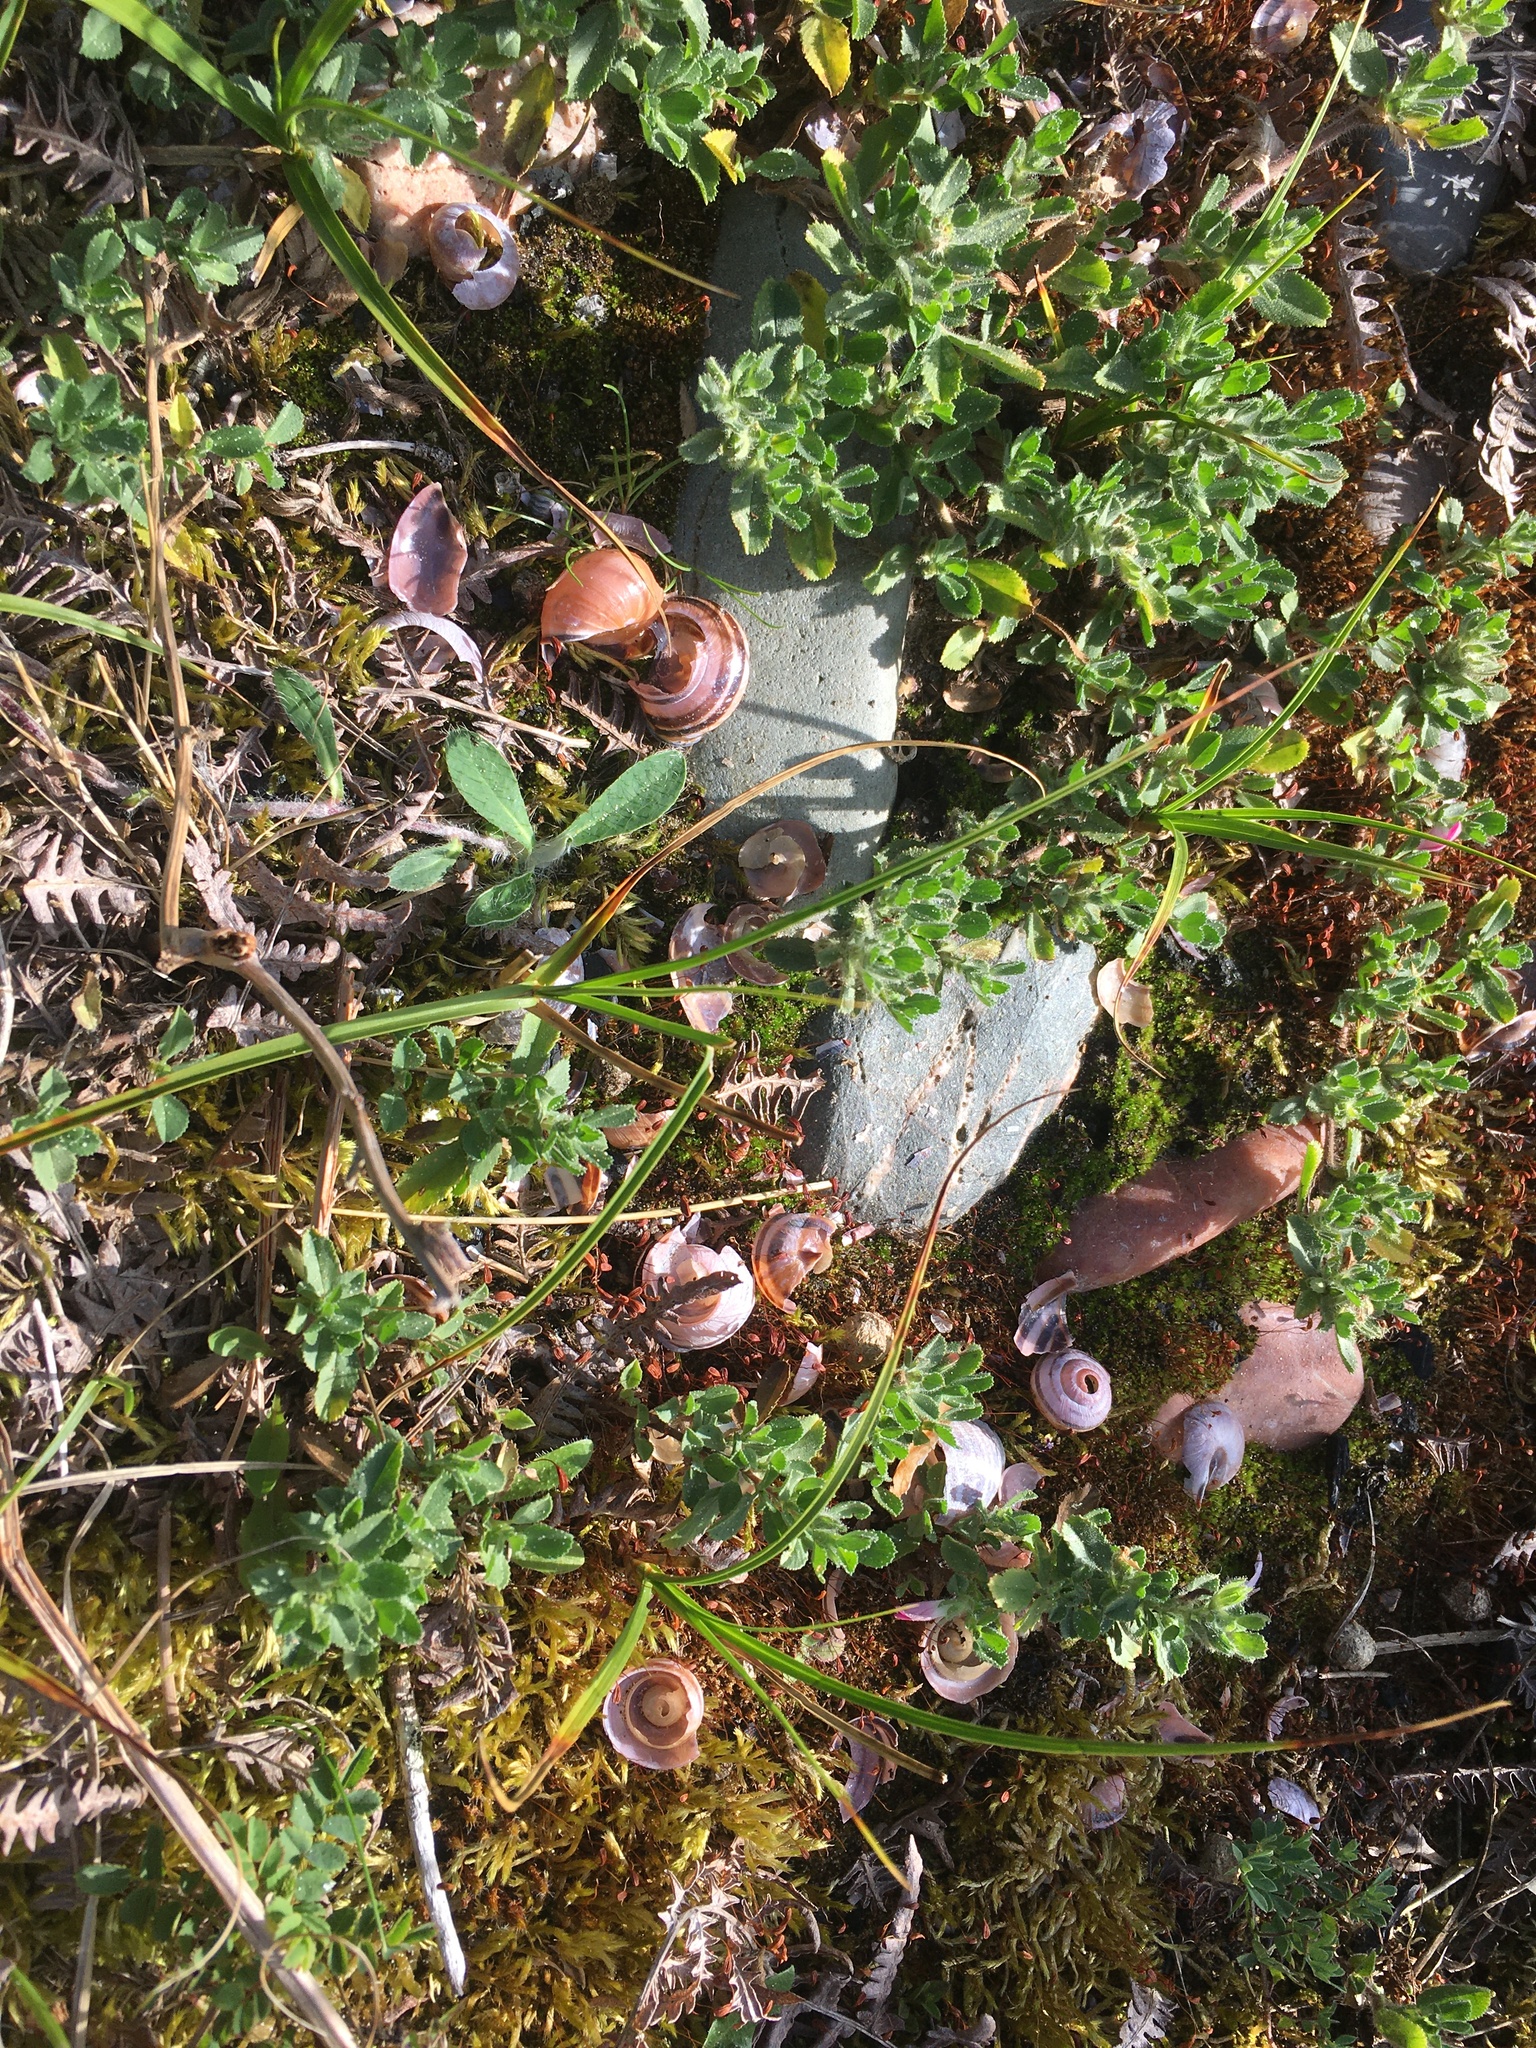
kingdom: Animalia
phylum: Chordata
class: Aves
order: Passeriformes
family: Turdidae
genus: Turdus
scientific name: Turdus philomelos
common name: Song thrush
